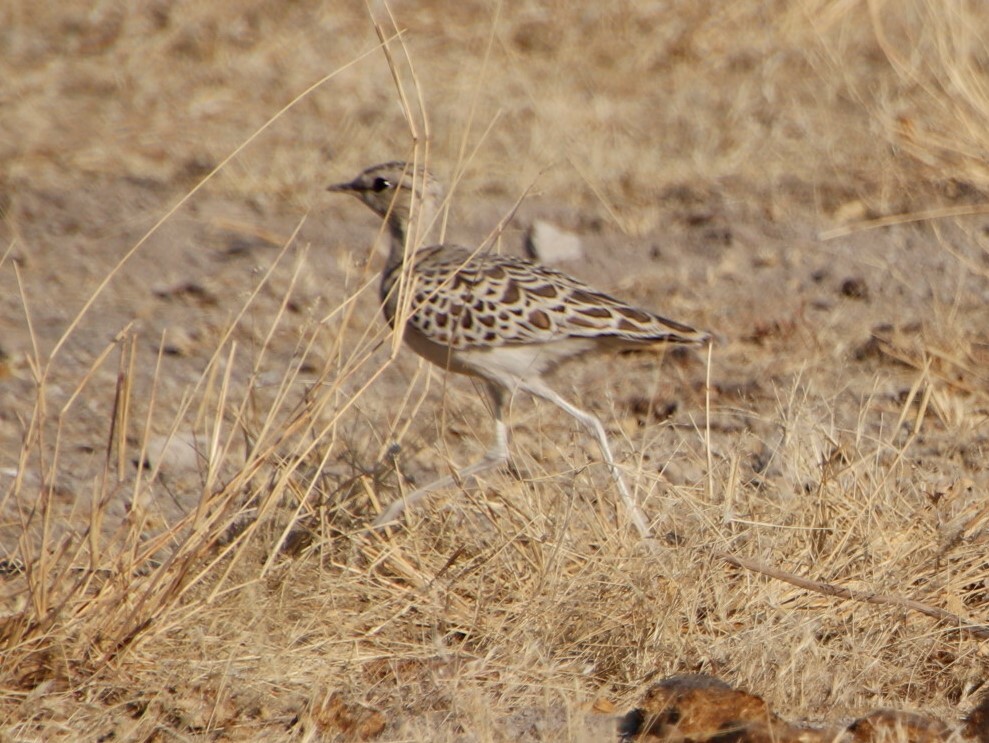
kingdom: Animalia
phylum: Chordata
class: Aves
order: Charadriiformes
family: Glareolidae
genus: Rhinoptilus
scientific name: Rhinoptilus africanus
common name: Double-banded courser
